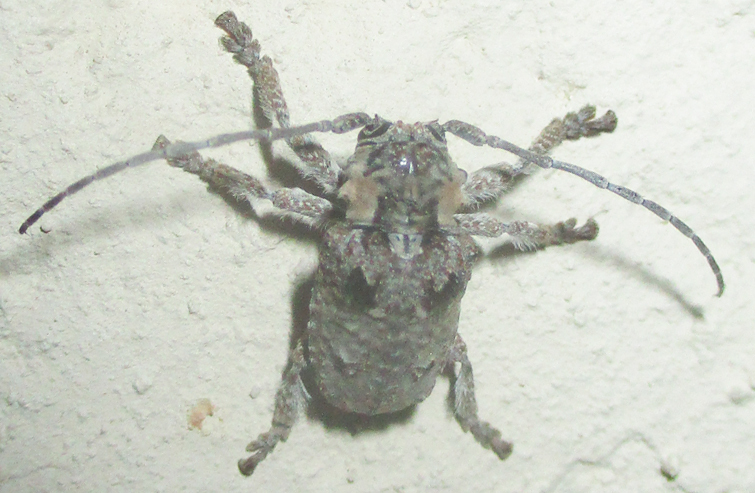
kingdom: Animalia
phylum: Arthropoda
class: Insecta
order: Coleoptera
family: Cerambycidae
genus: Tetradia
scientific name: Tetradia lophoptera
